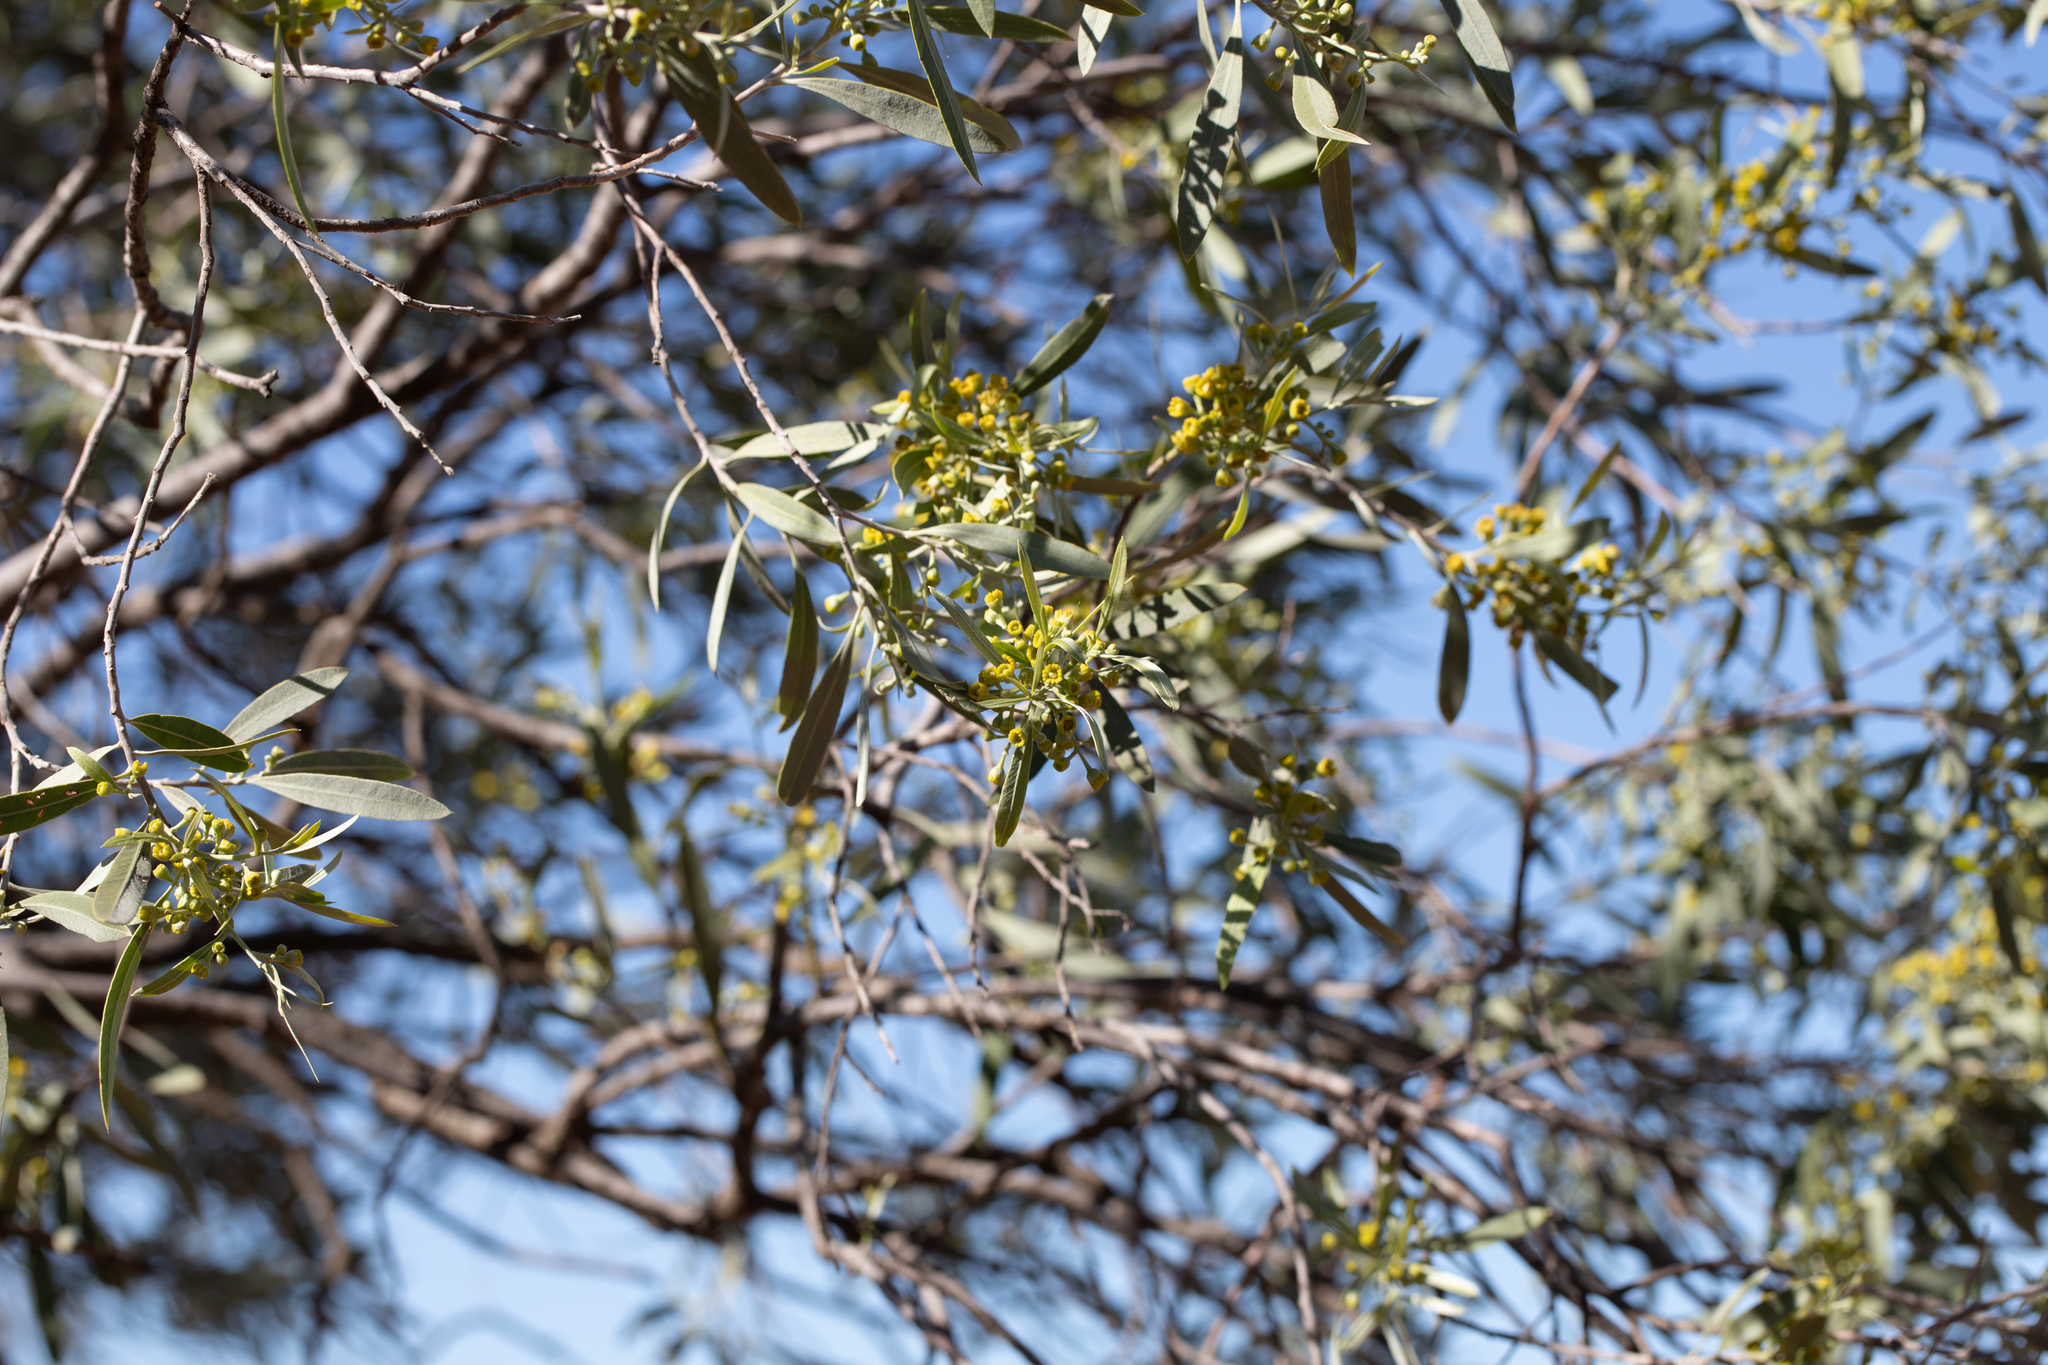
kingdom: Plantae
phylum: Tracheophyta
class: Magnoliopsida
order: Sapindales
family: Sapindaceae
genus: Alectryon
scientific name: Alectryon oleifolius
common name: Australian rosewood
